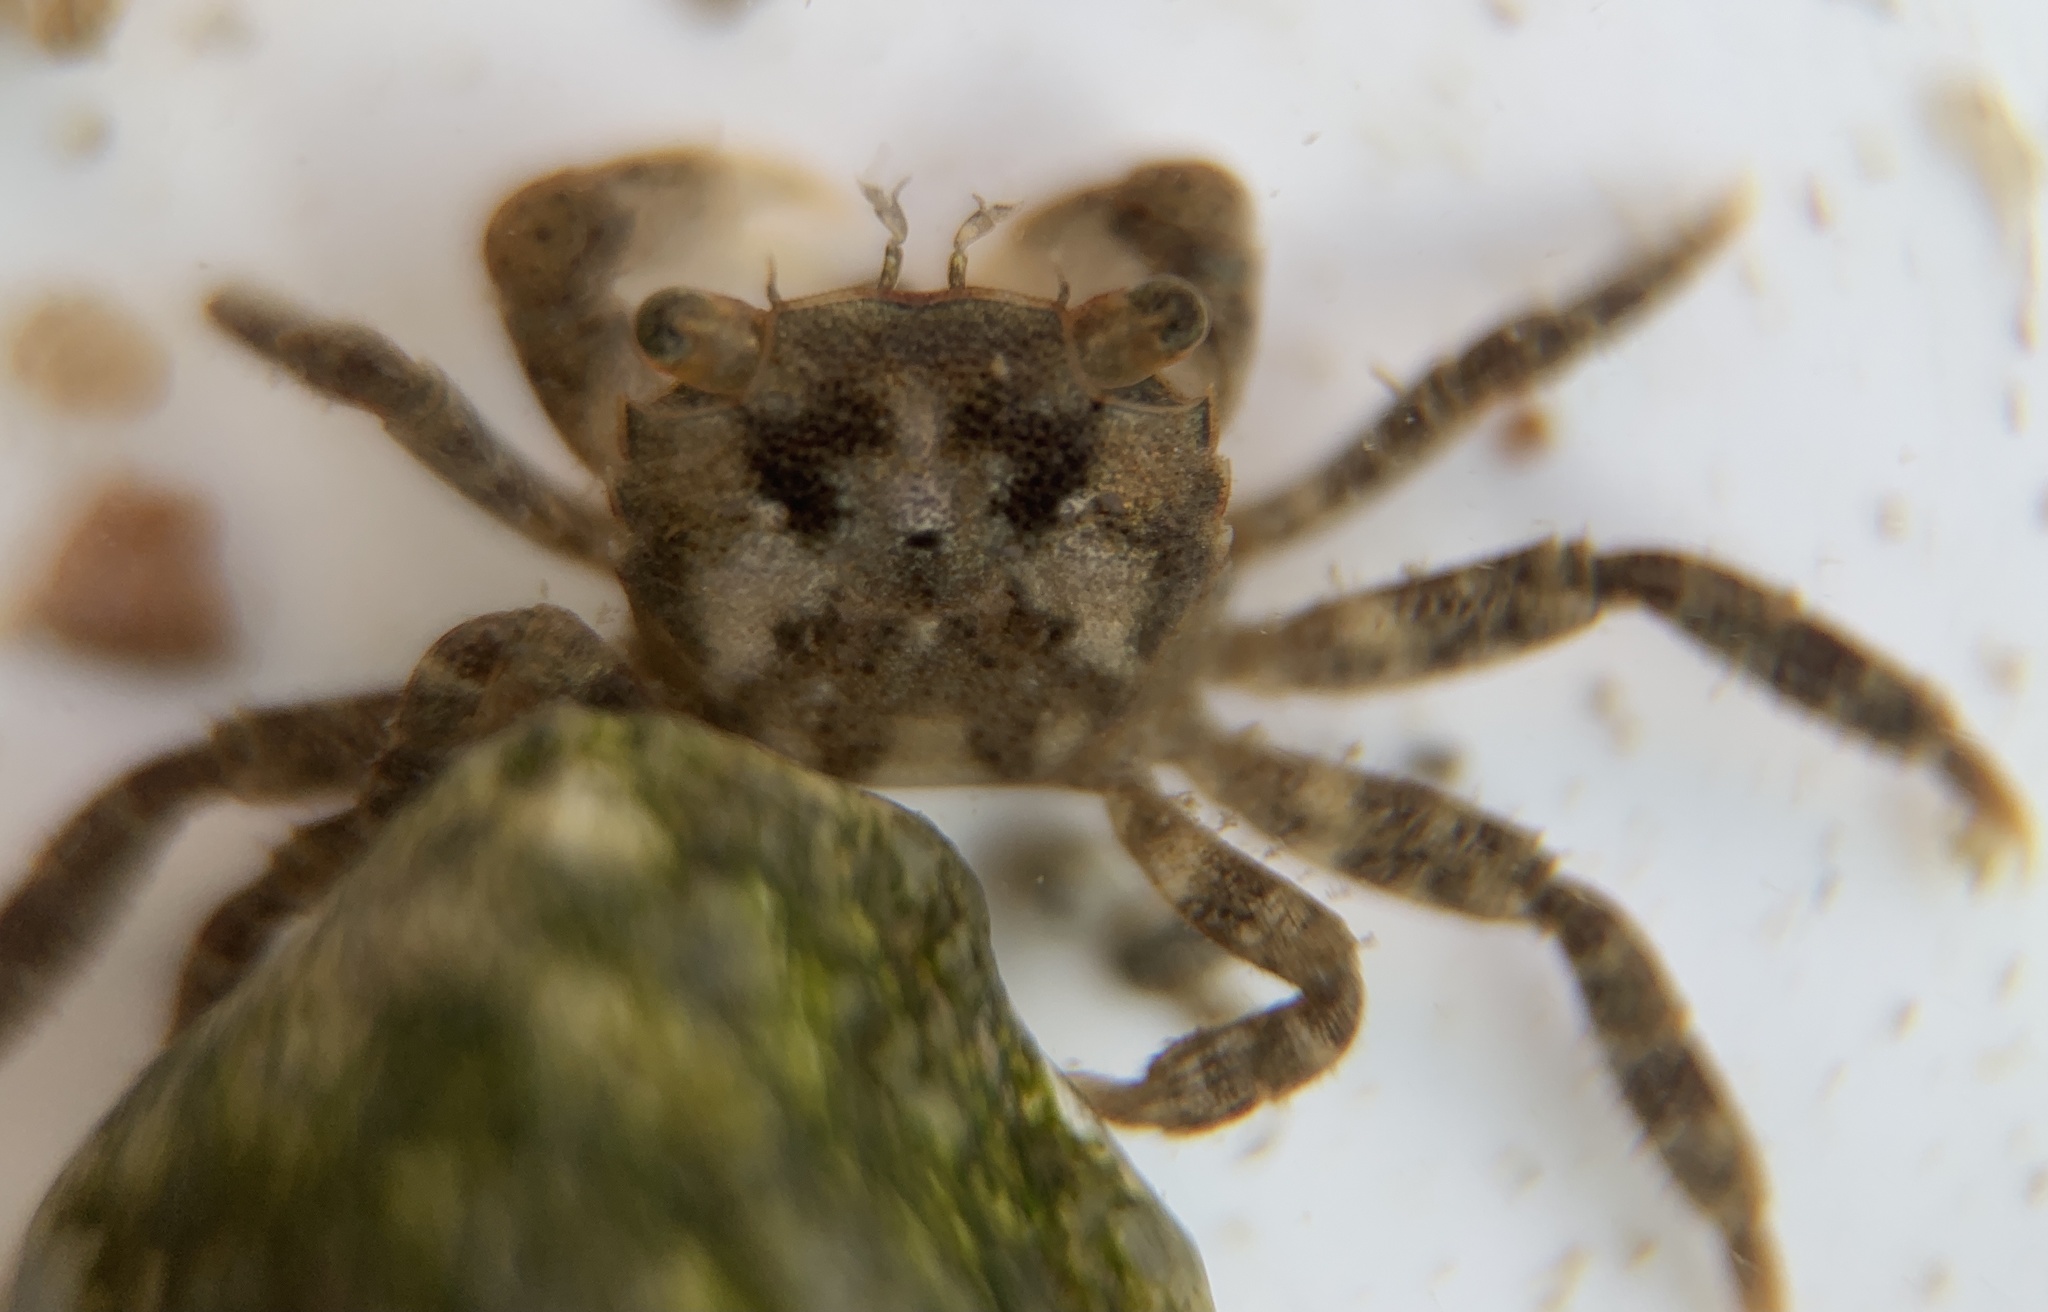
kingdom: Animalia
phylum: Arthropoda
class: Malacostraca
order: Decapoda
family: Varunidae
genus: Hemigrapsus
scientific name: Hemigrapsus sanguineus
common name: Asian shore crab
